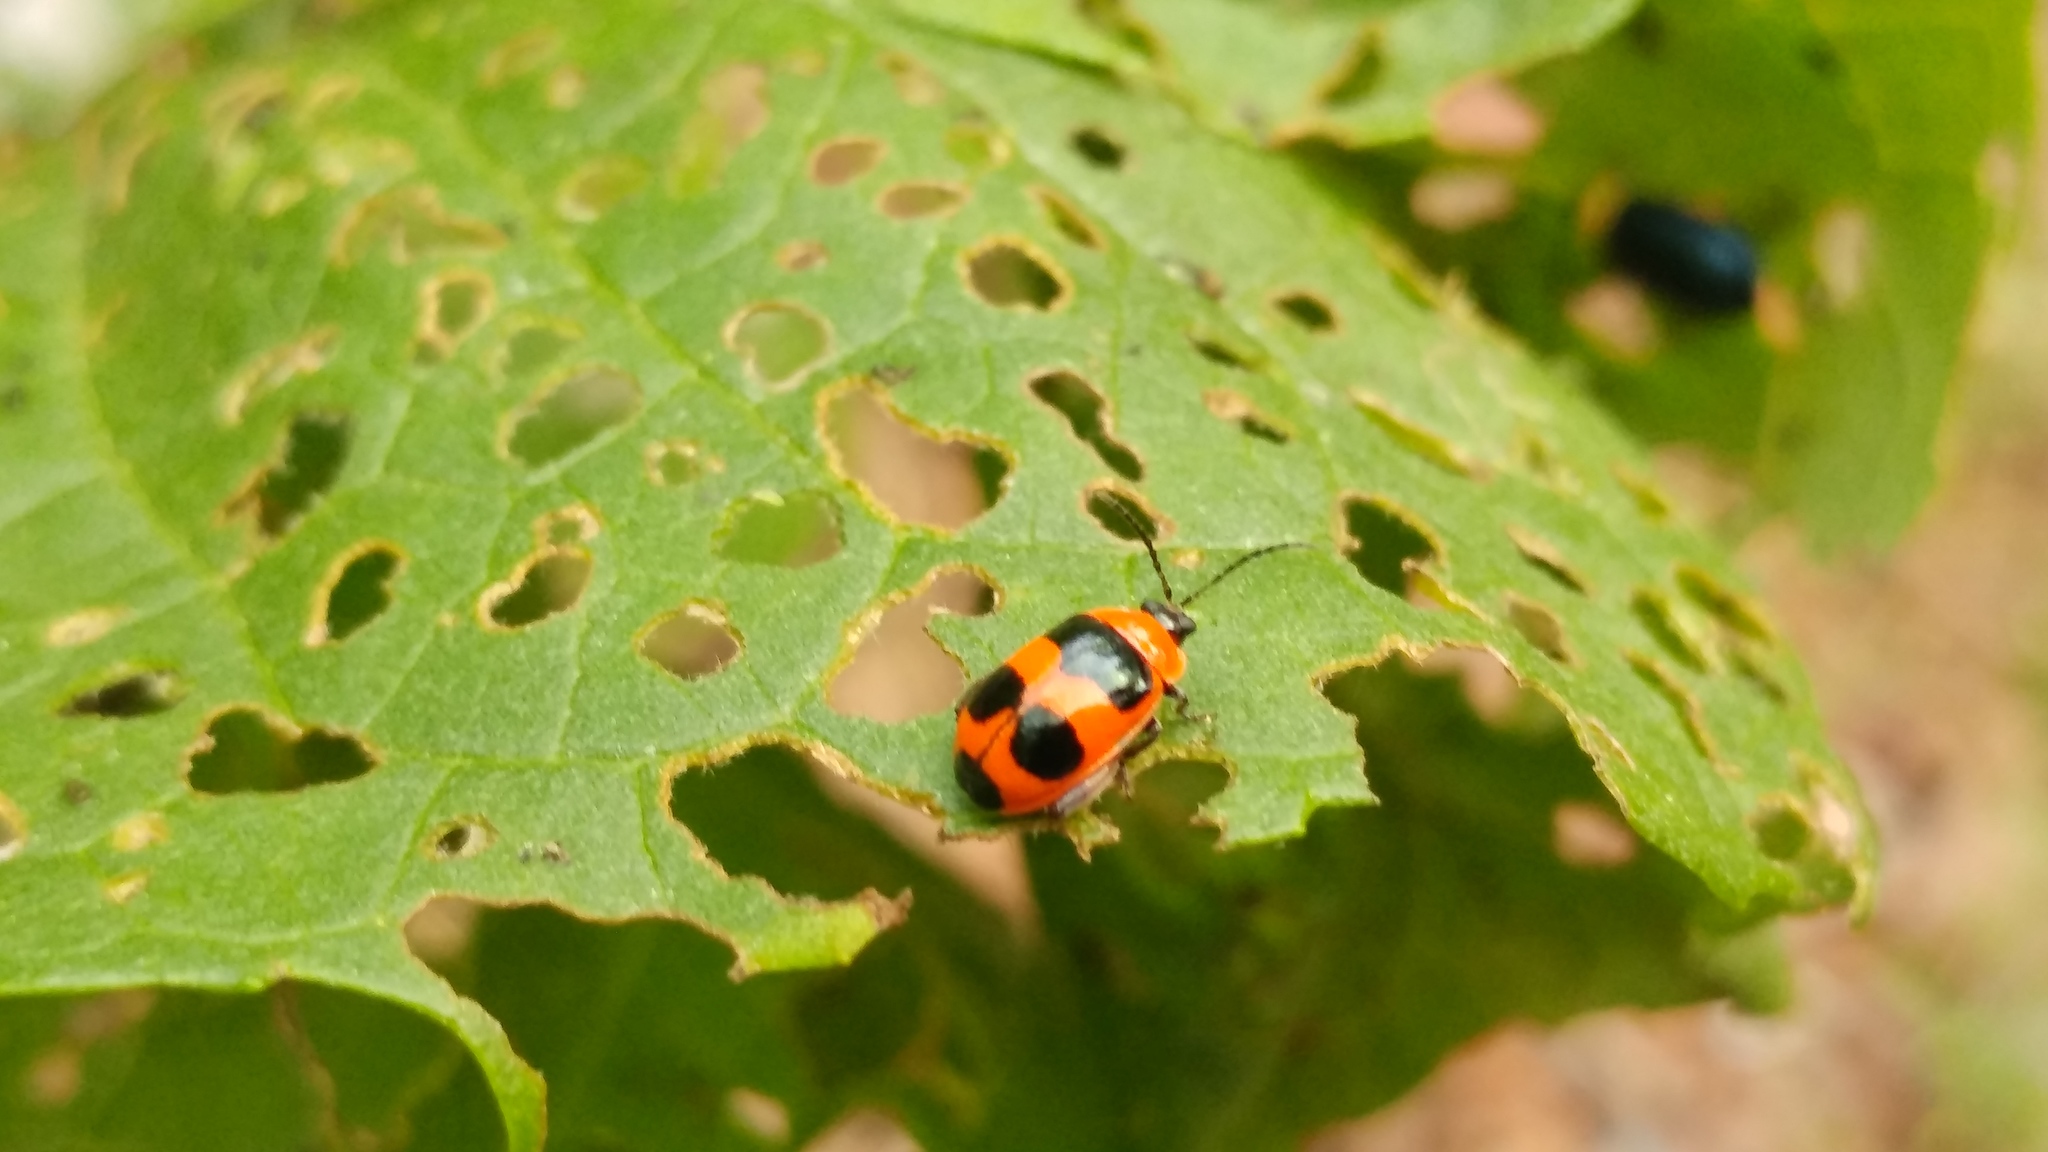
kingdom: Animalia
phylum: Arthropoda
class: Insecta
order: Coleoptera
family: Chrysomelidae
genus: Alagoasa
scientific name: Alagoasa
